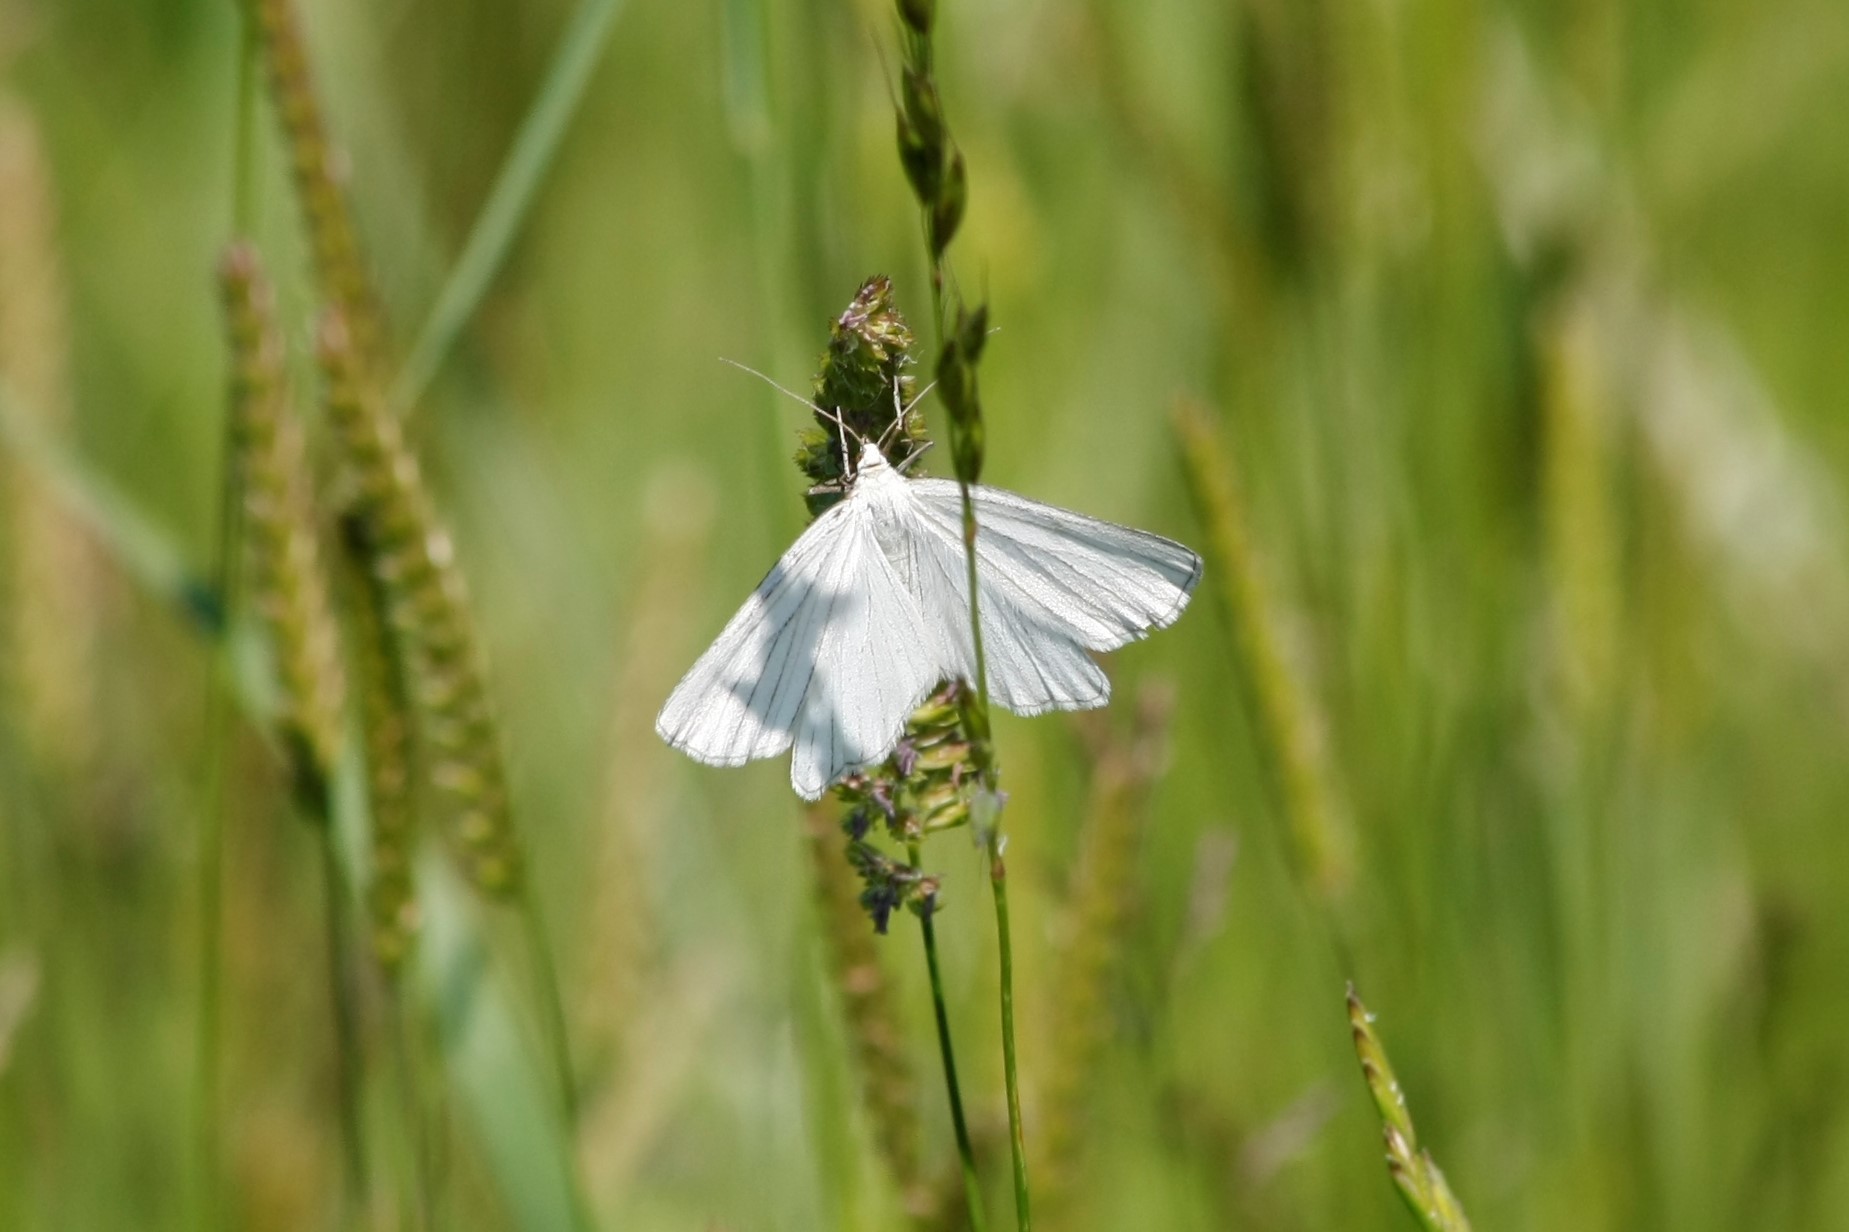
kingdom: Animalia
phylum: Arthropoda
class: Insecta
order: Lepidoptera
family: Geometridae
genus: Siona
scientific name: Siona lineata
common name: Black-veined moth
